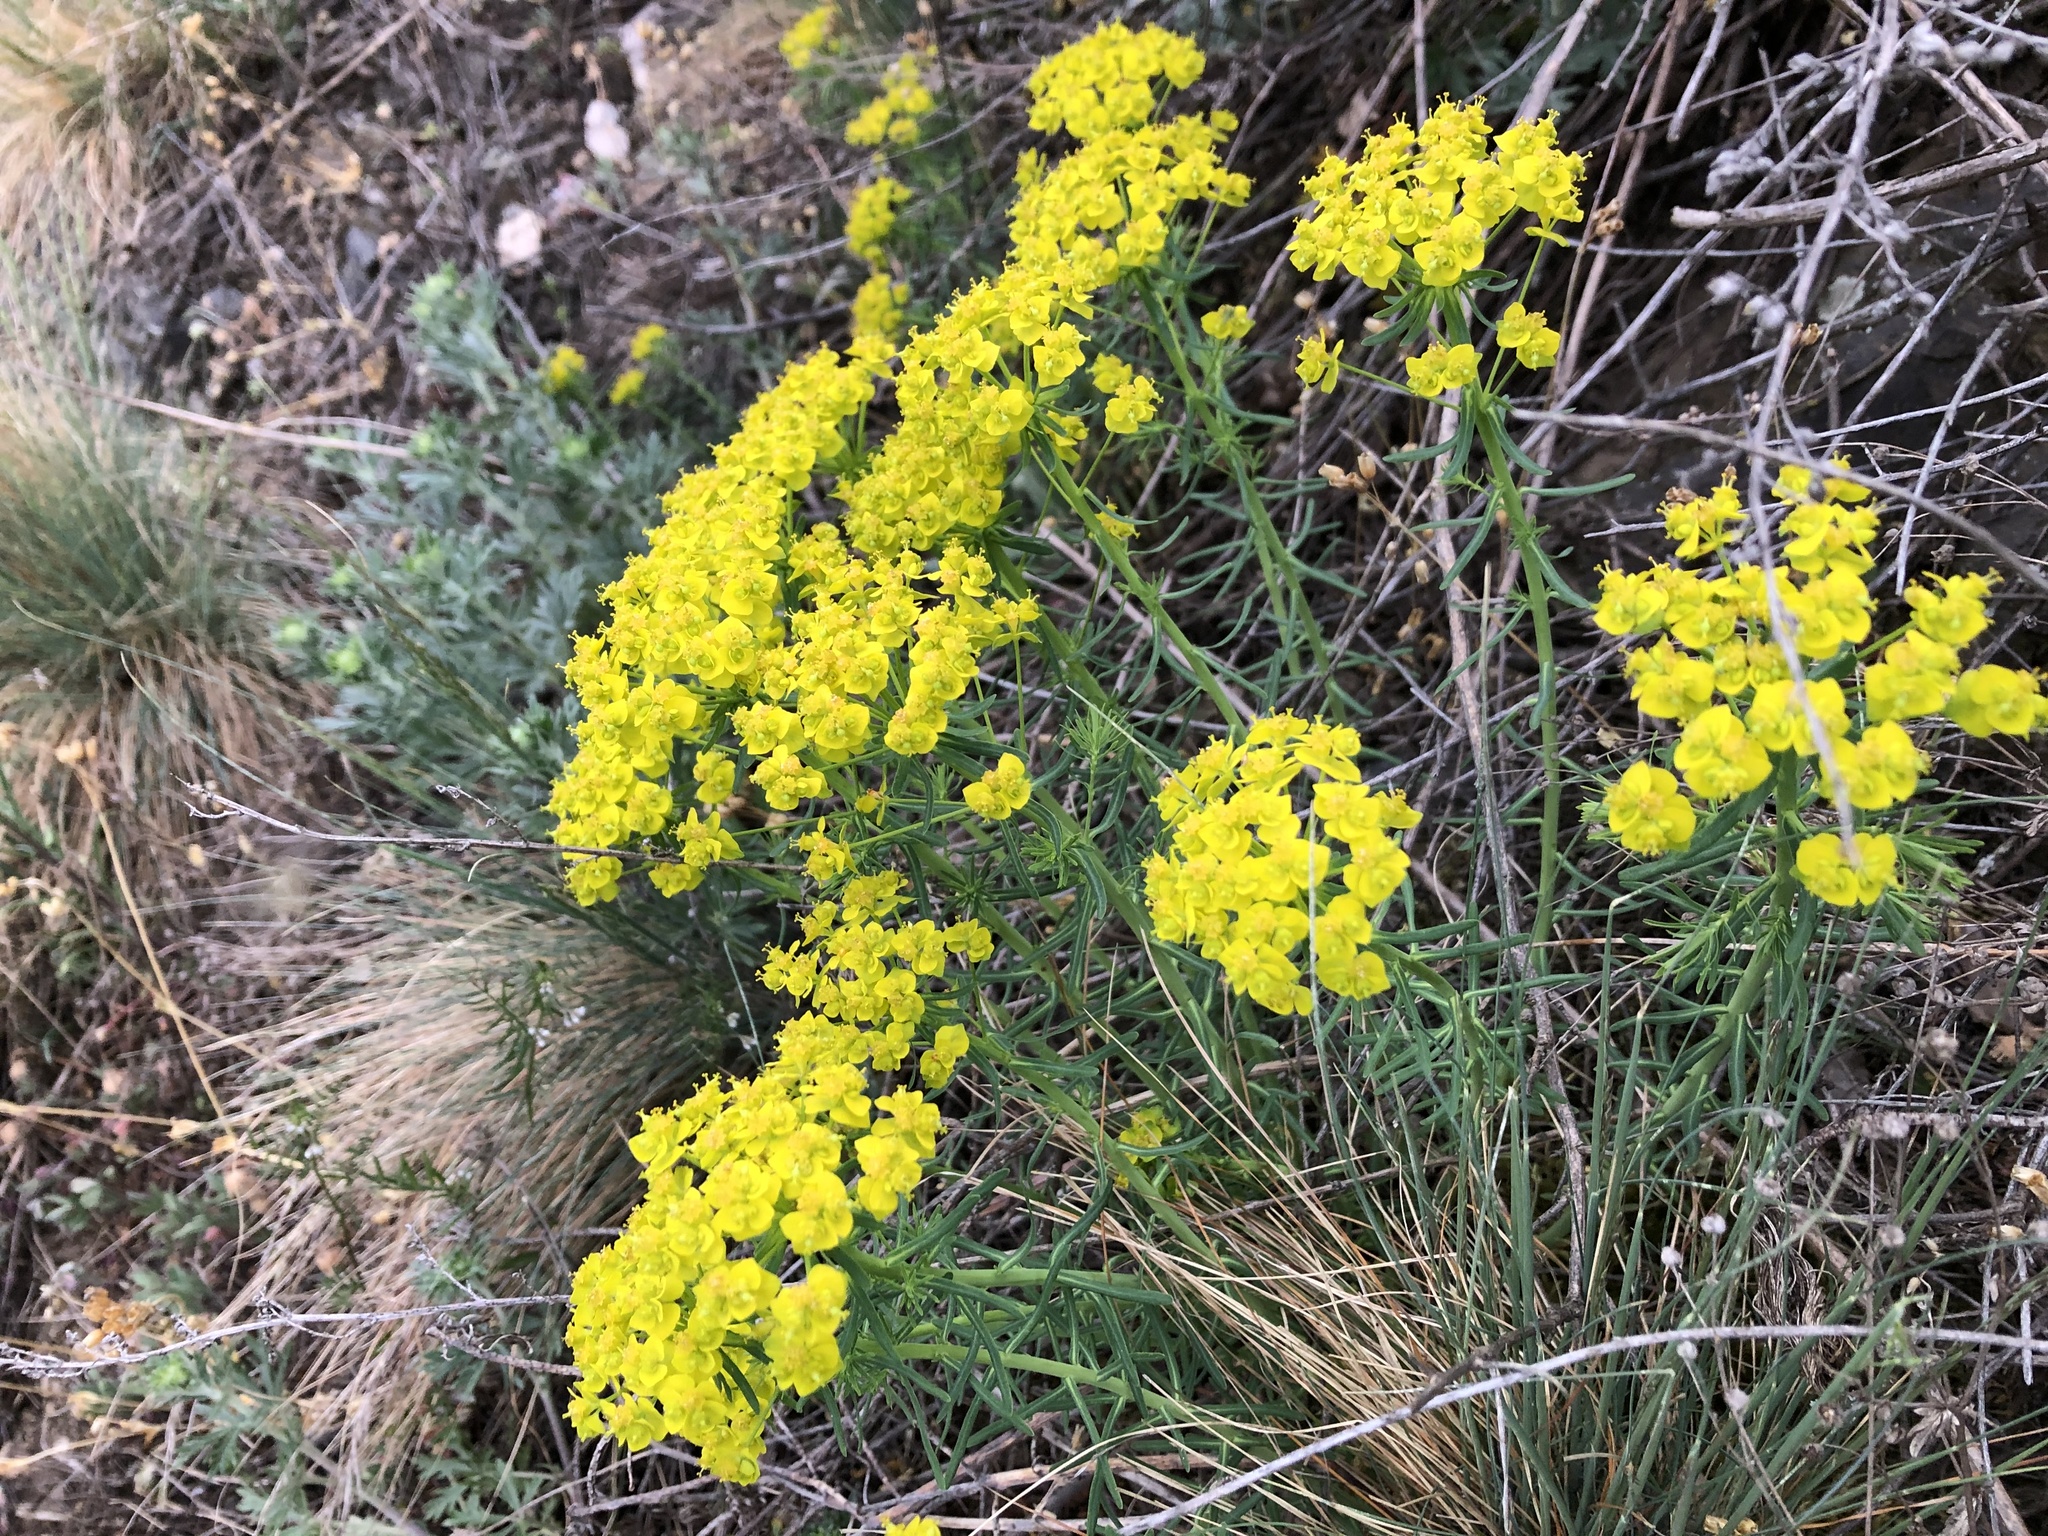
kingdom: Plantae
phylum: Tracheophyta
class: Magnoliopsida
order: Malpighiales
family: Euphorbiaceae
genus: Euphorbia
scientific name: Euphorbia cyparissias
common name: Cypress spurge
